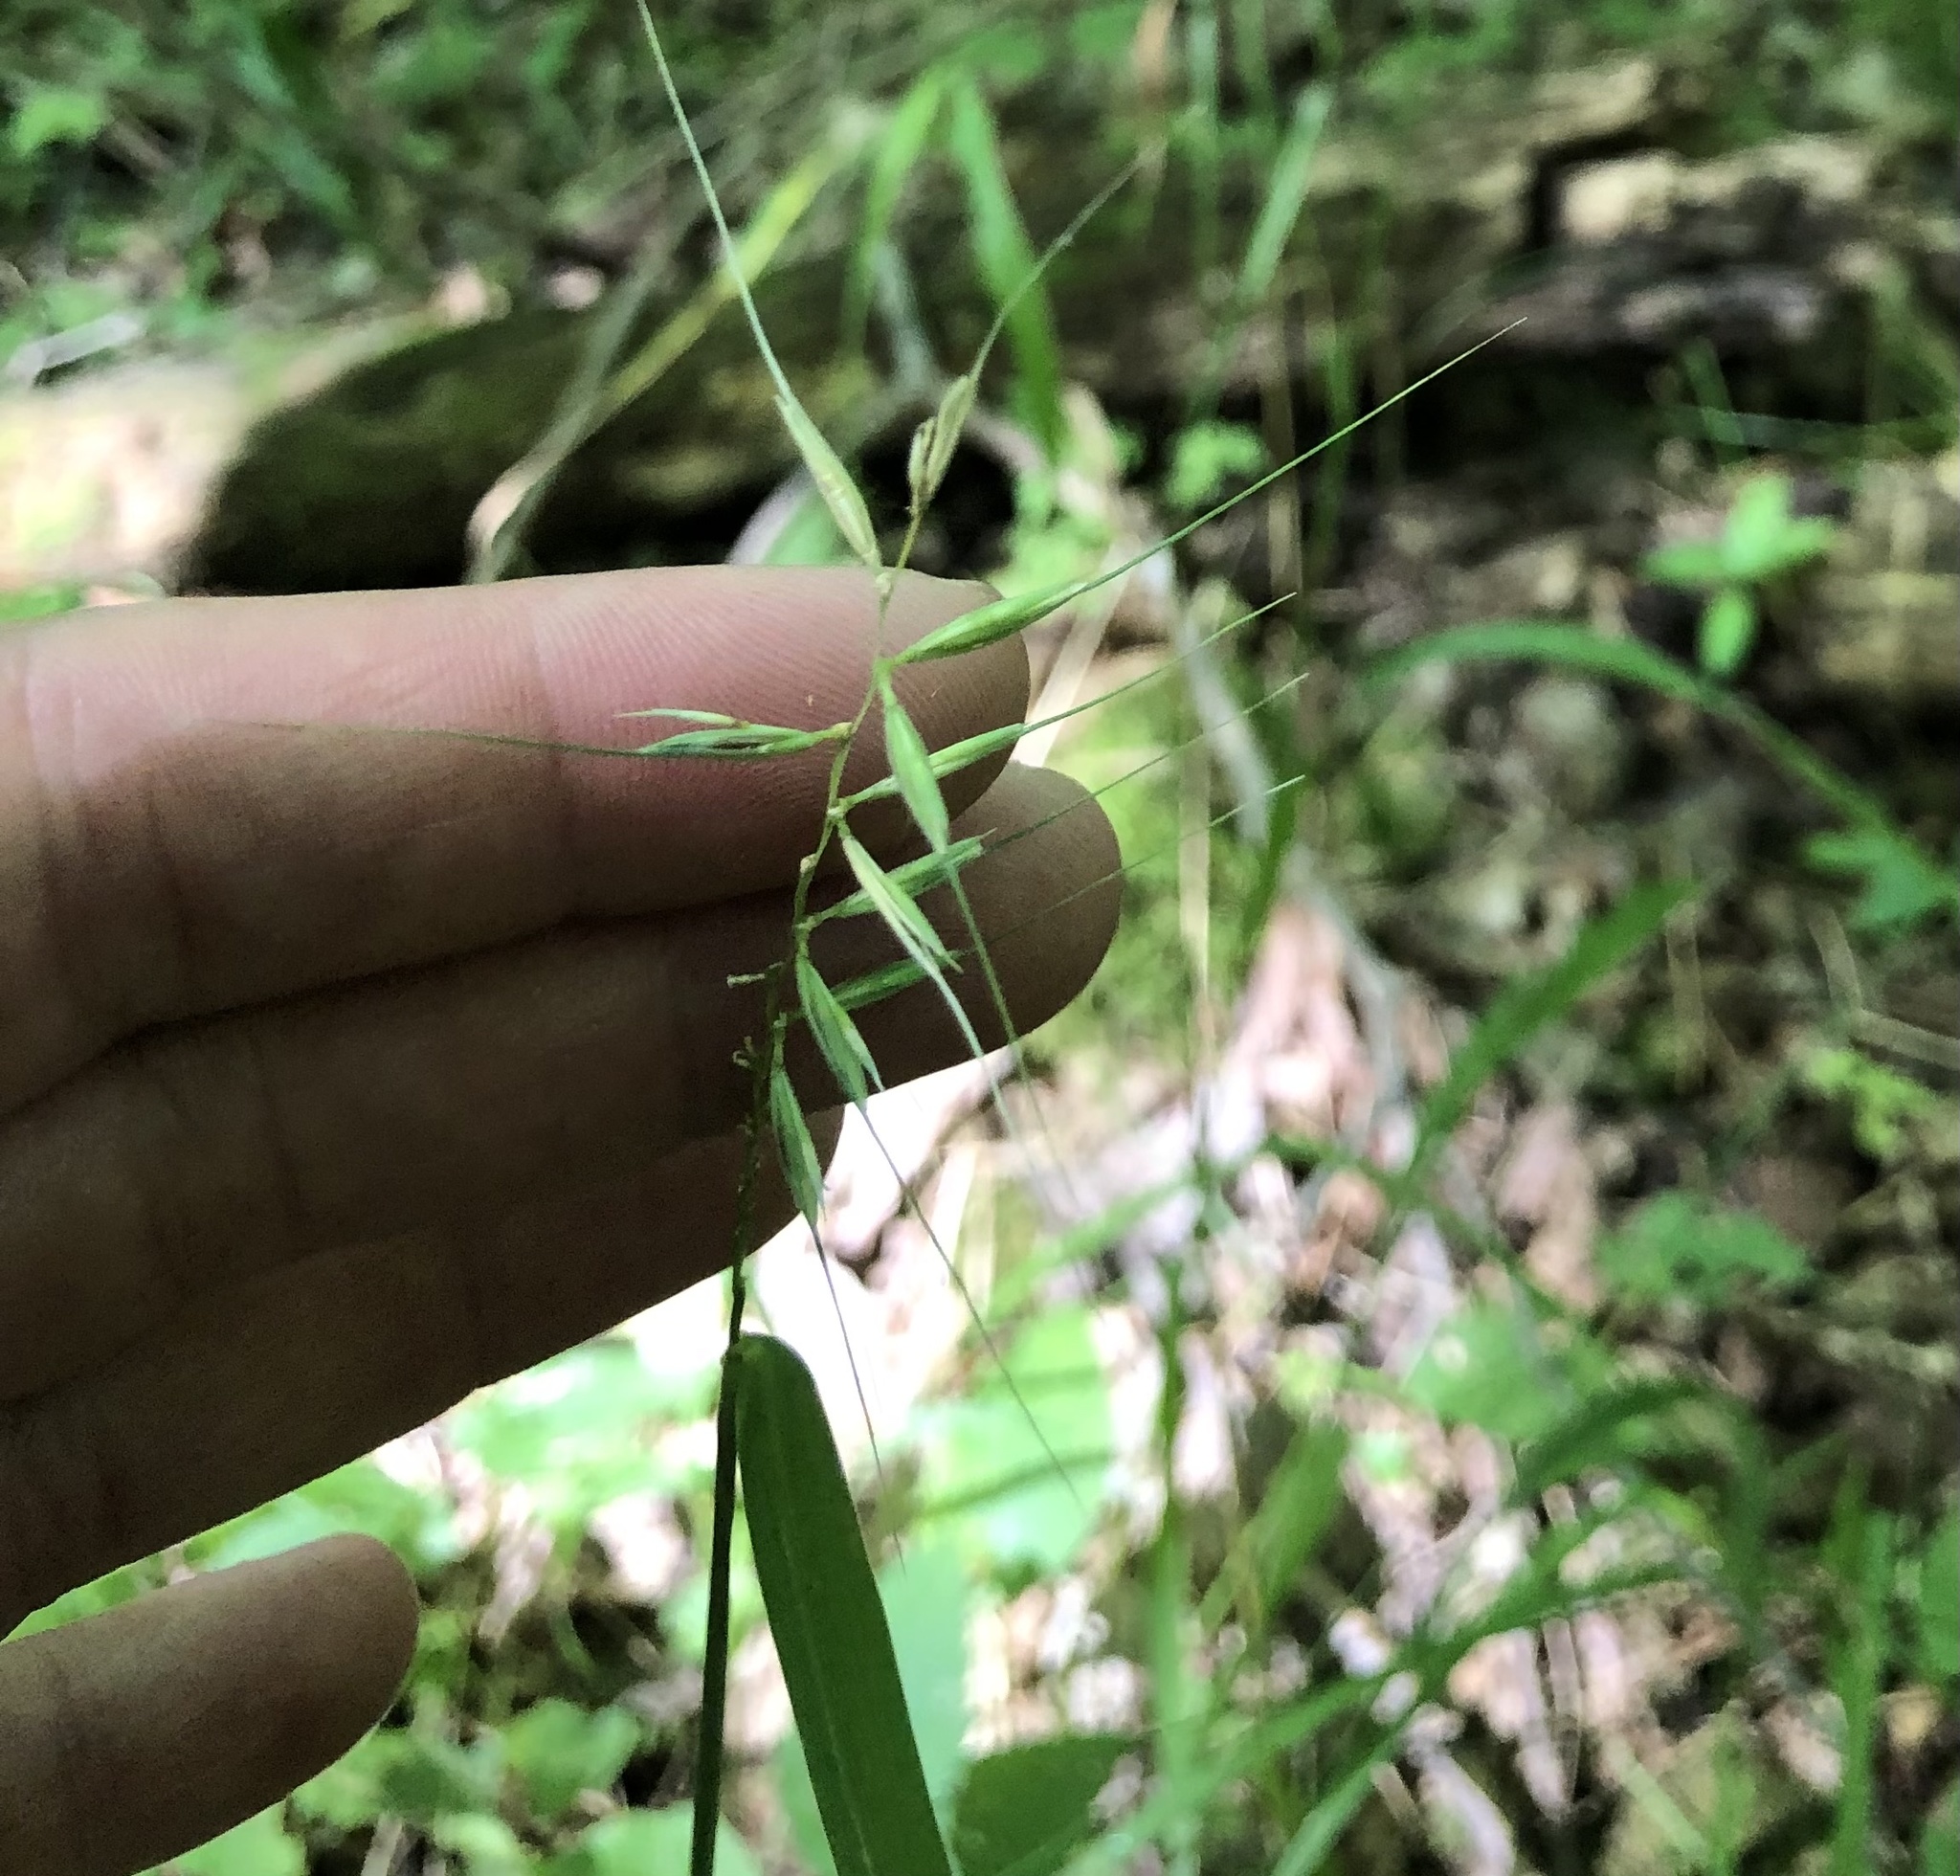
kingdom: Plantae
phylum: Tracheophyta
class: Liliopsida
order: Poales
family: Poaceae
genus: Elymus
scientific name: Elymus hystrix
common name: Bottlebrush grass
